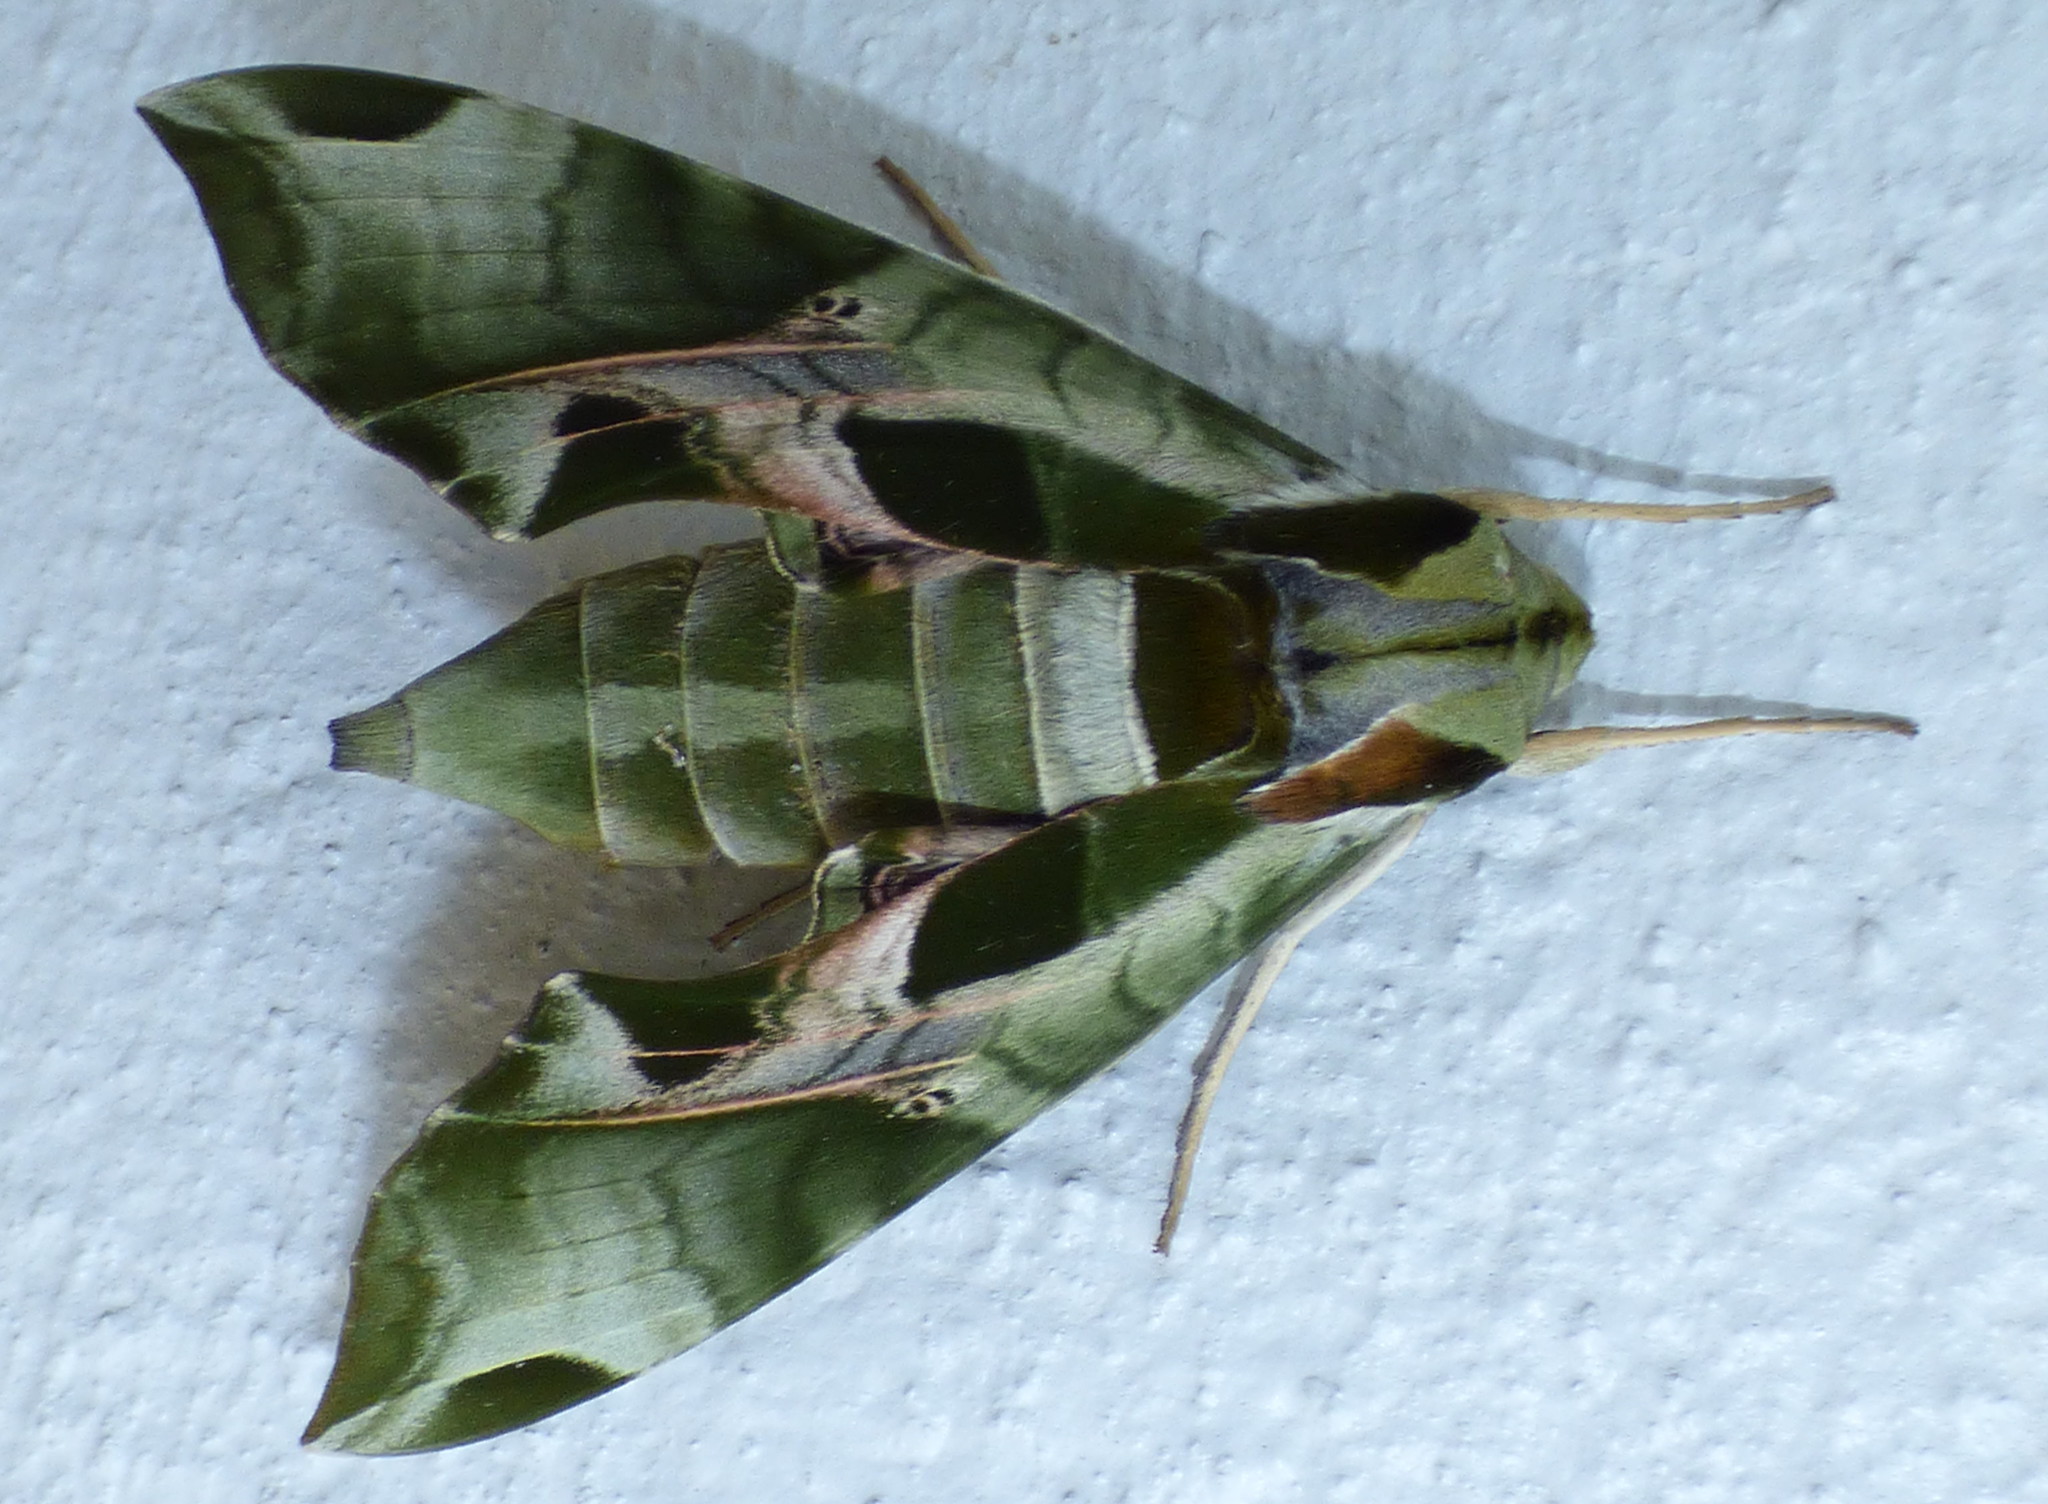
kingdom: Animalia
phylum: Arthropoda
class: Insecta
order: Lepidoptera
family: Sphingidae
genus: Eumorpha
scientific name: Eumorpha pandorus
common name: Pandora sphinx
